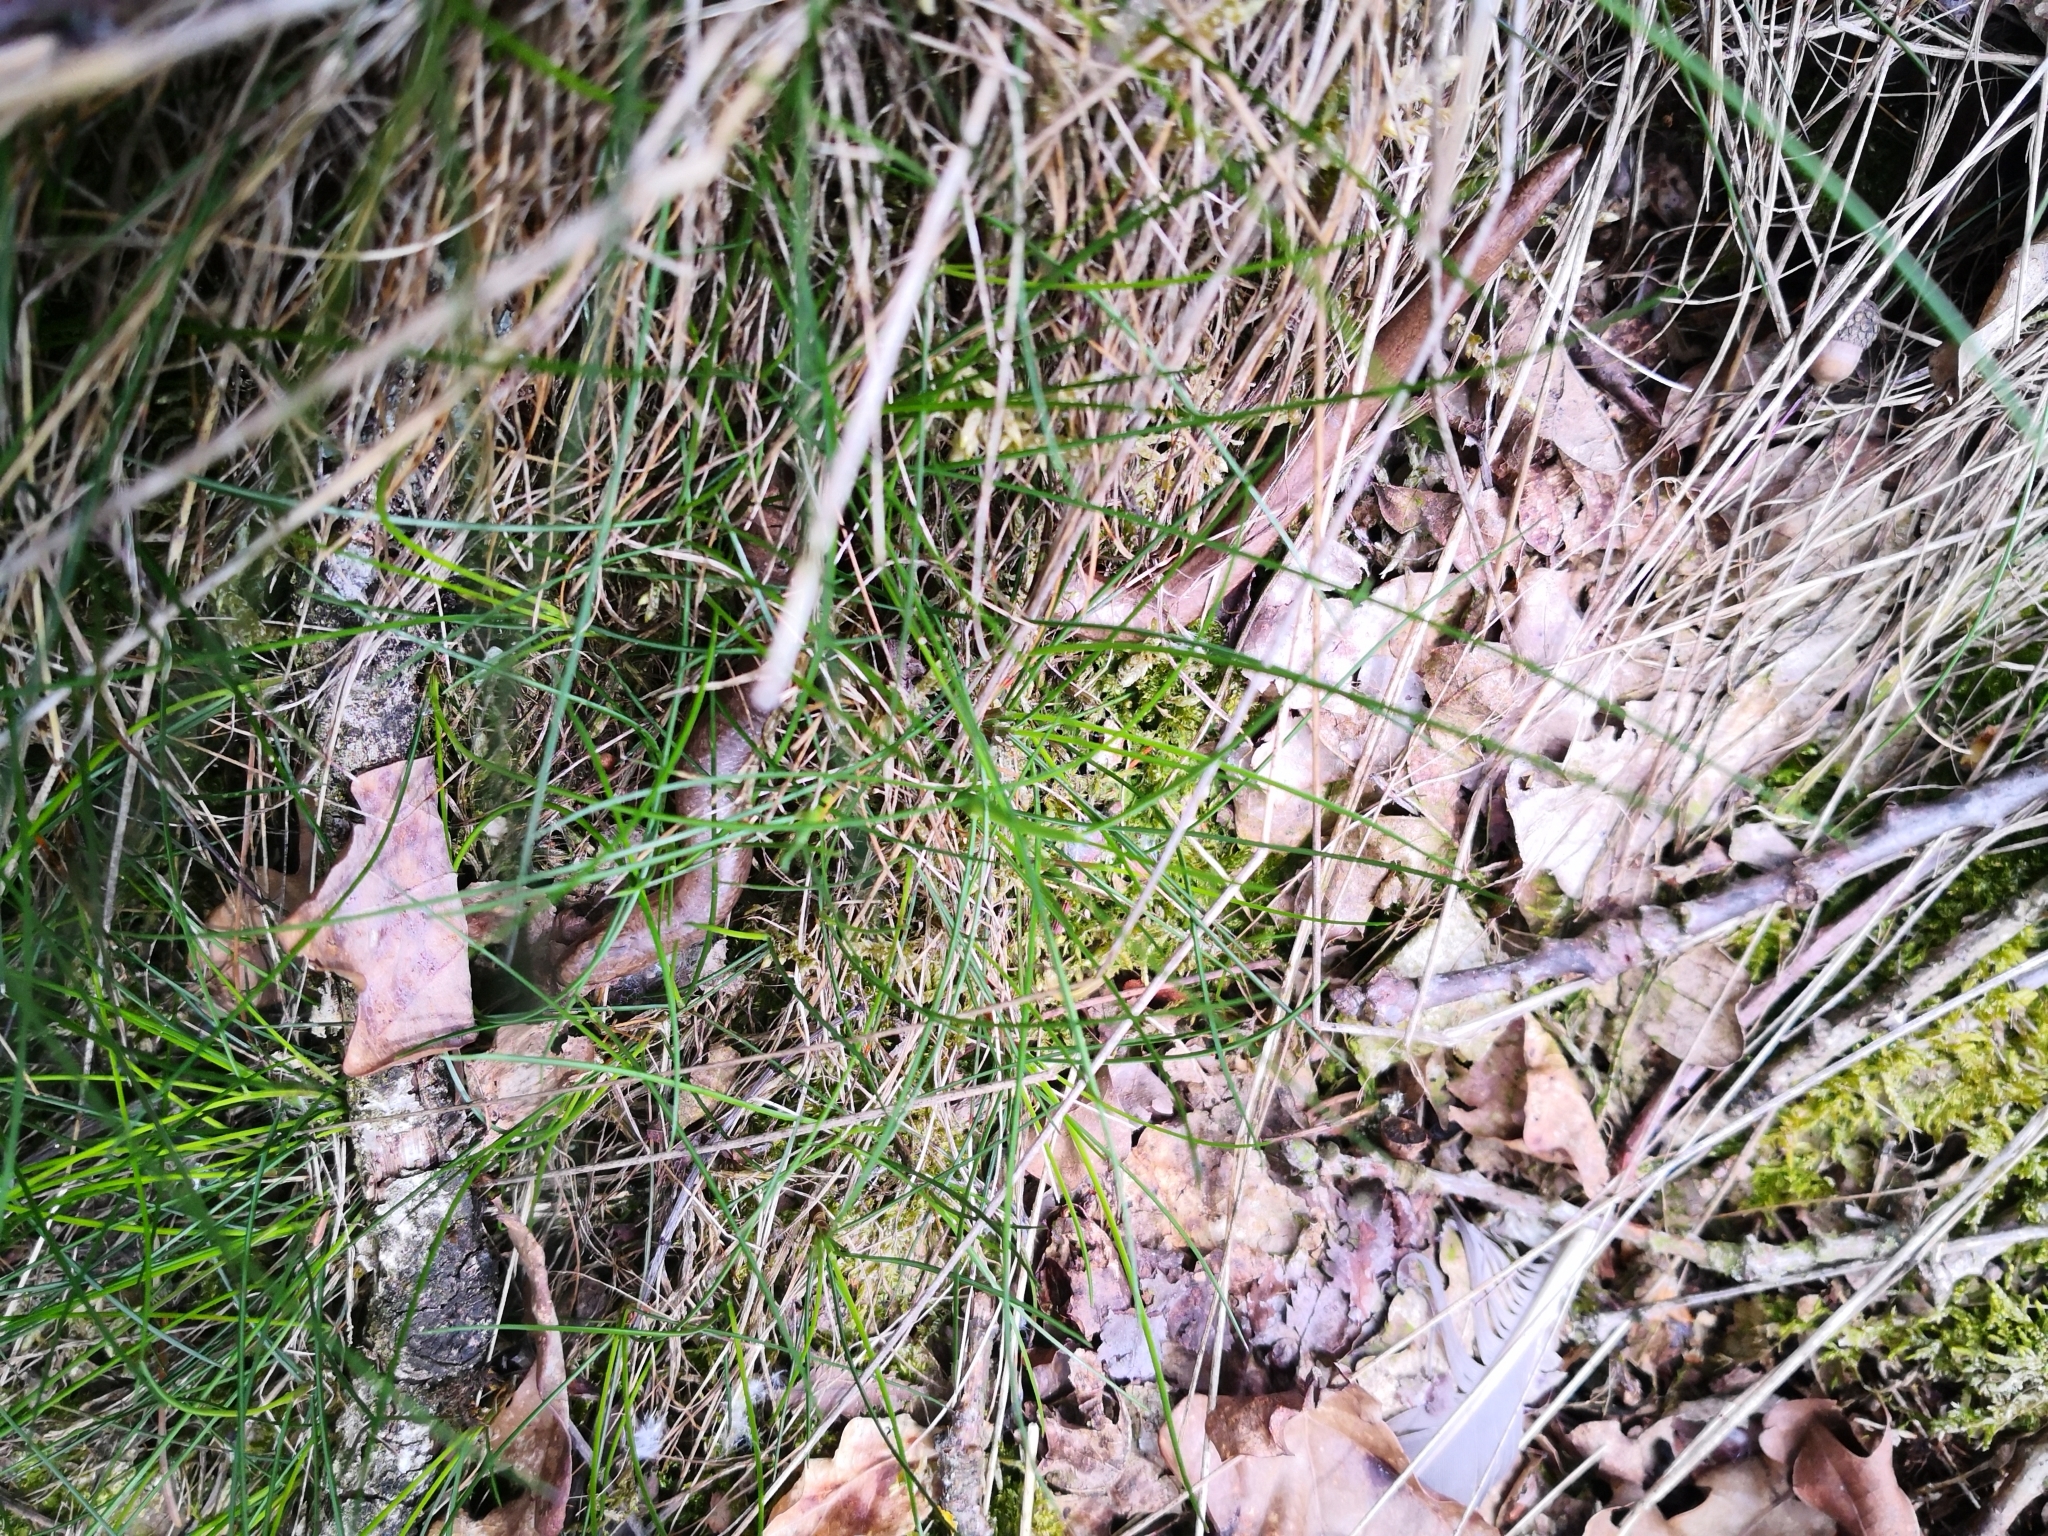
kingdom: Animalia
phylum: Chordata
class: Squamata
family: Anguidae
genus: Anguis
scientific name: Anguis fragilis
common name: Slow worm
